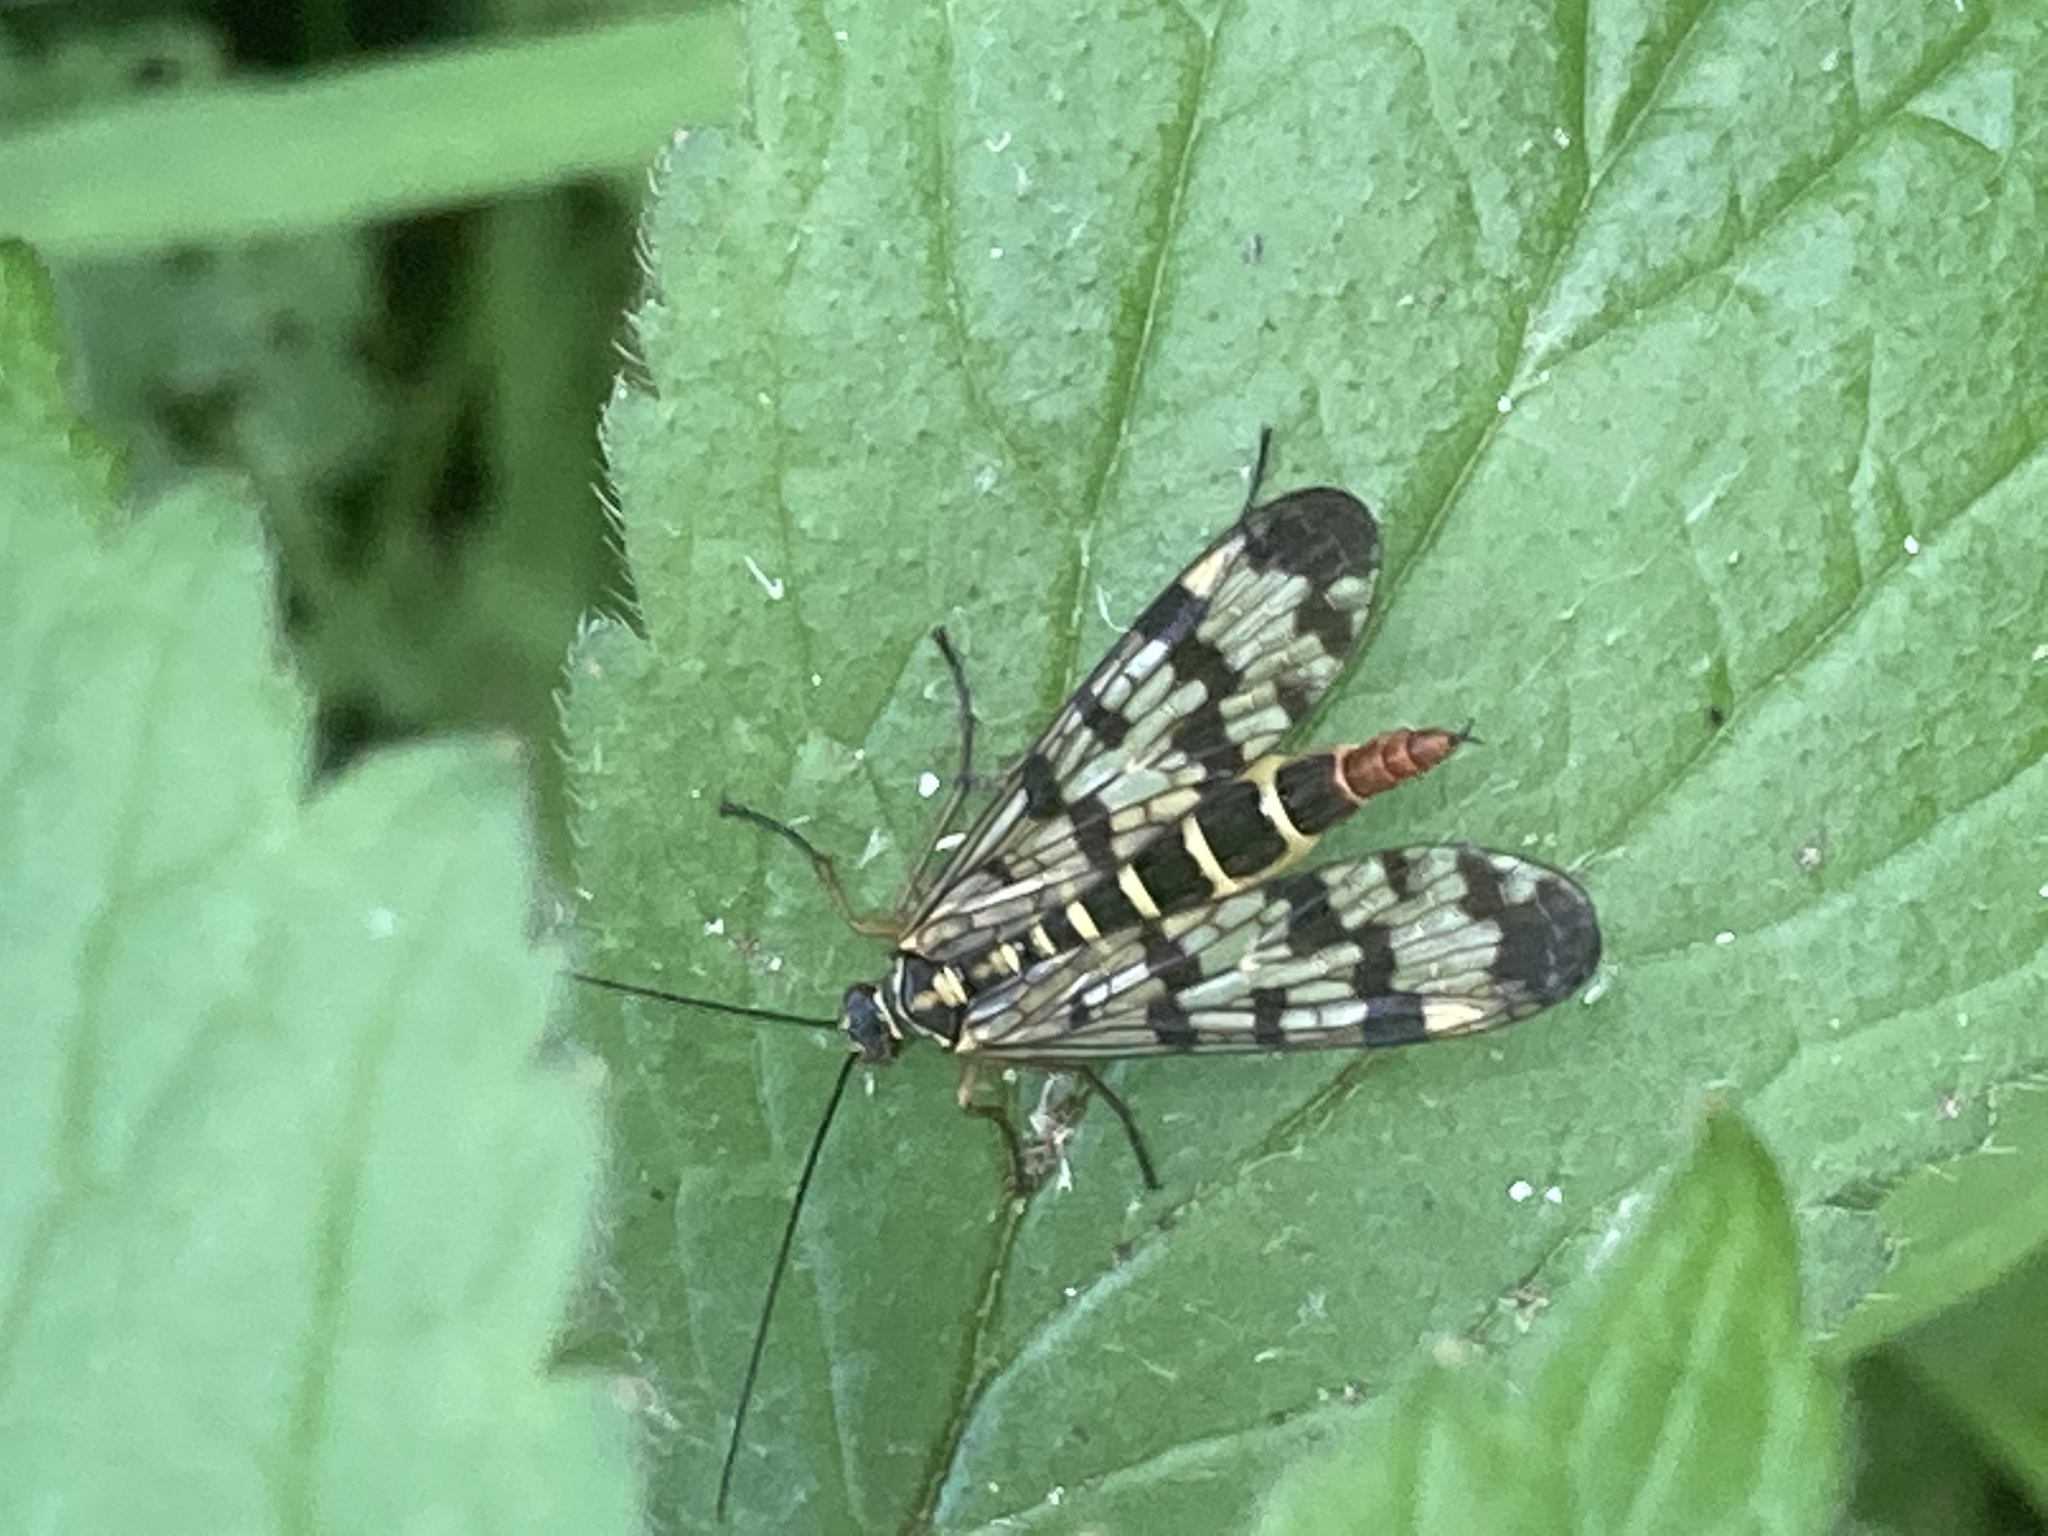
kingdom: Animalia
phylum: Arthropoda
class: Insecta
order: Mecoptera
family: Panorpidae
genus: Panorpa
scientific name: Panorpa communis
